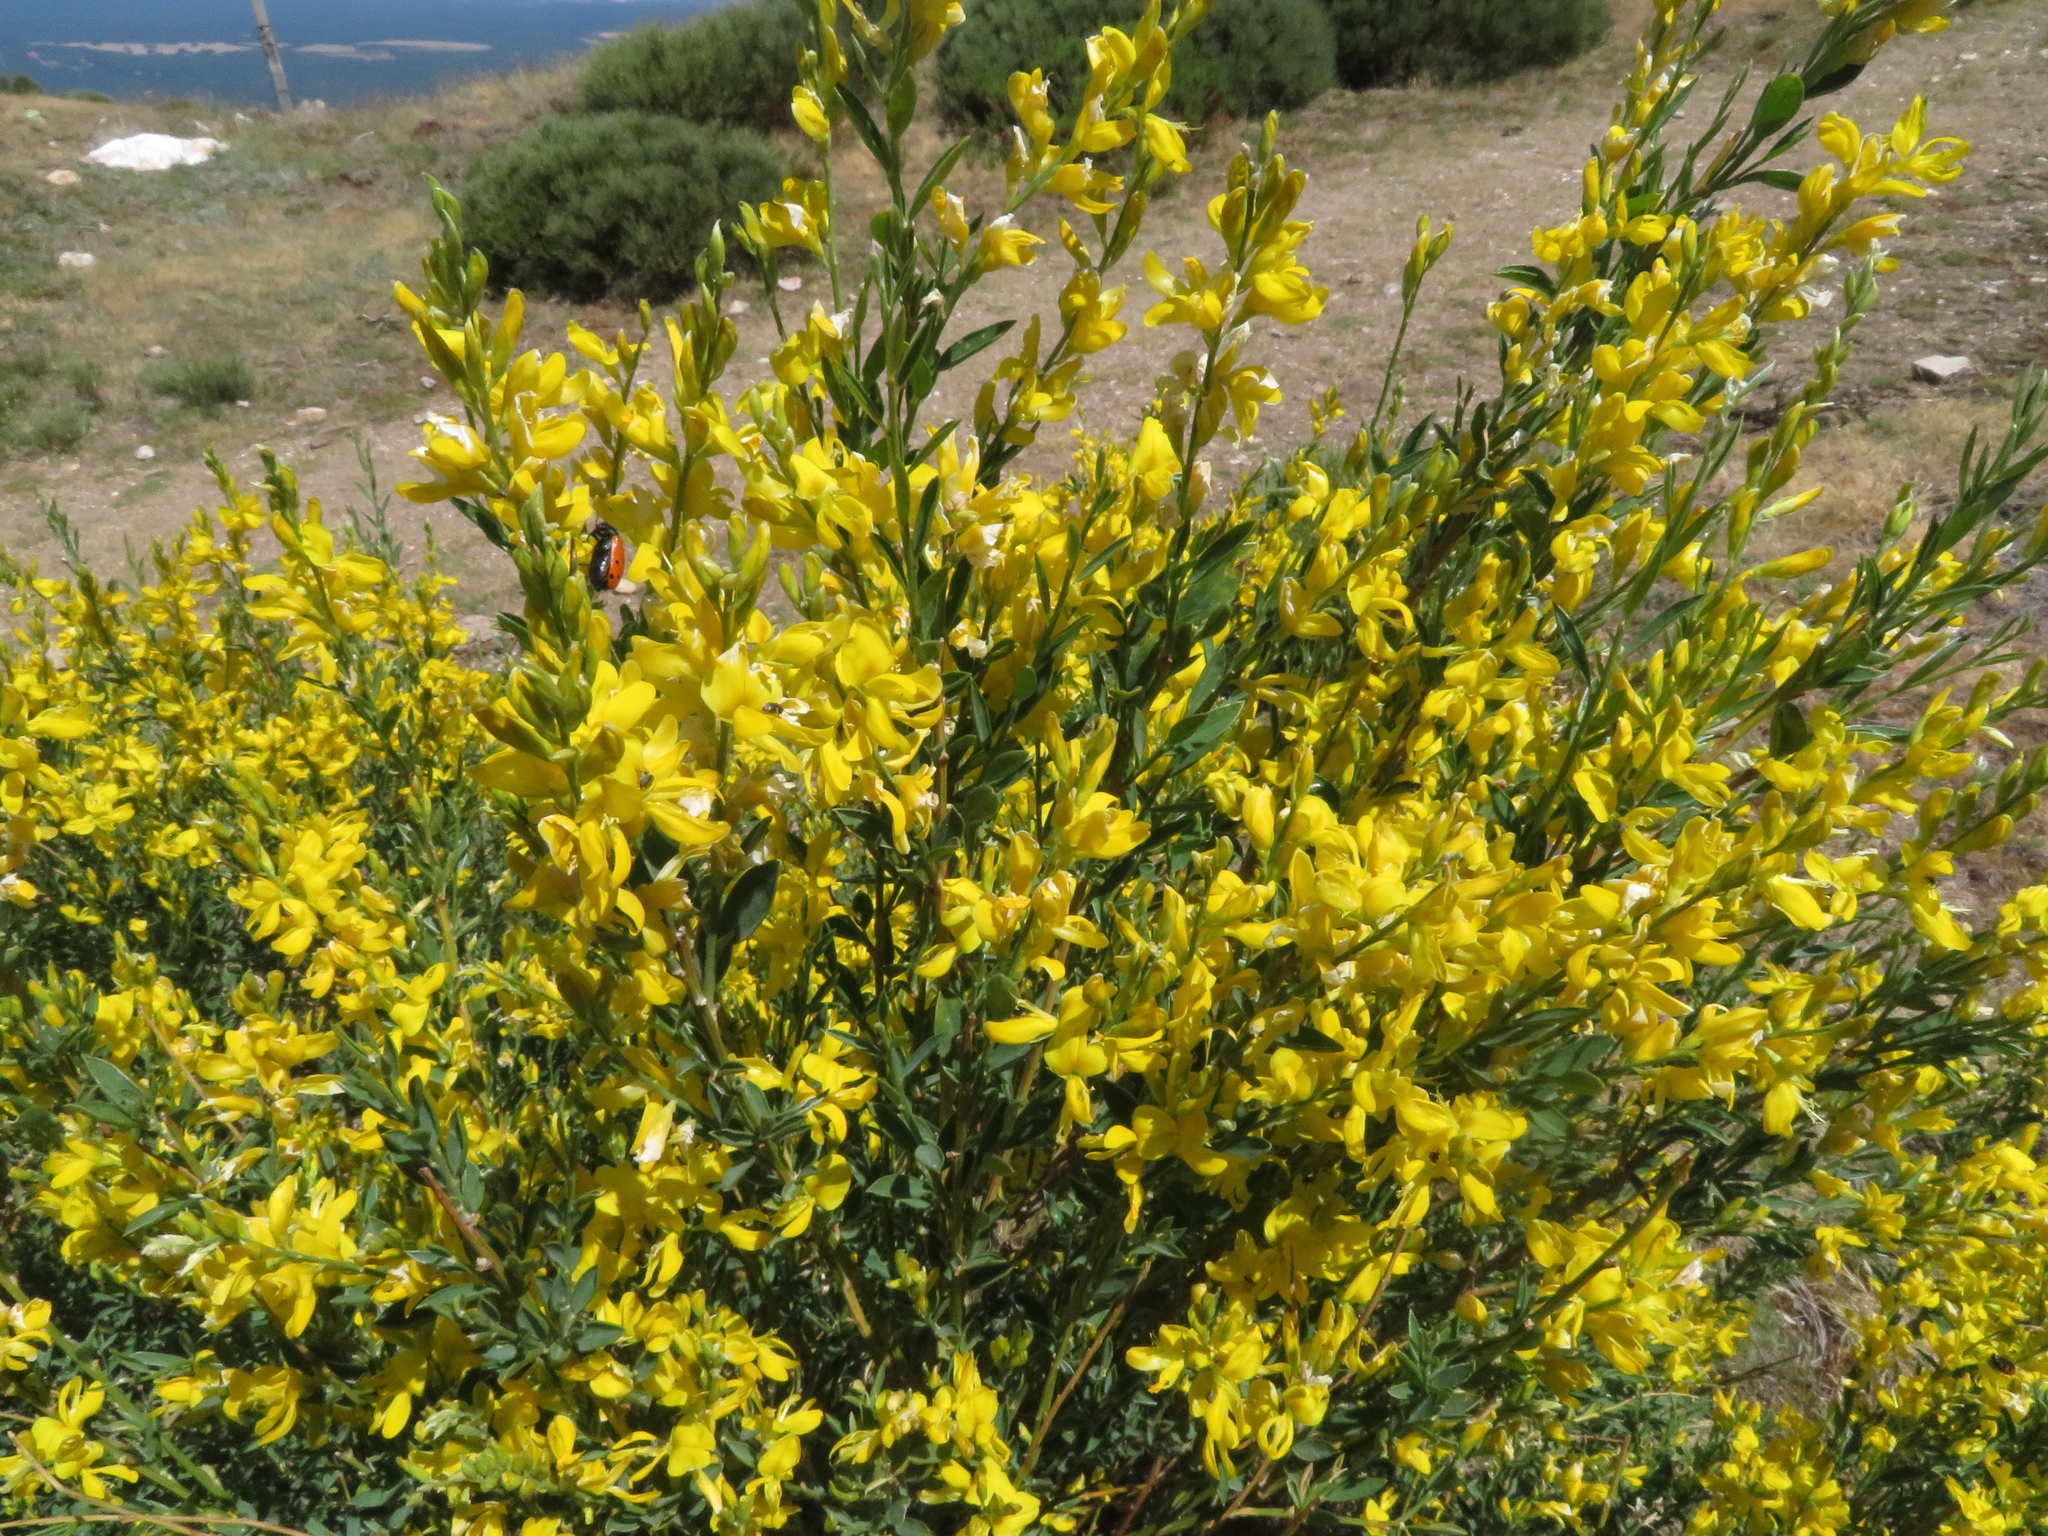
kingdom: Plantae
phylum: Tracheophyta
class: Magnoliopsida
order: Fabales
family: Fabaceae
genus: Genista
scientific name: Genista florida
